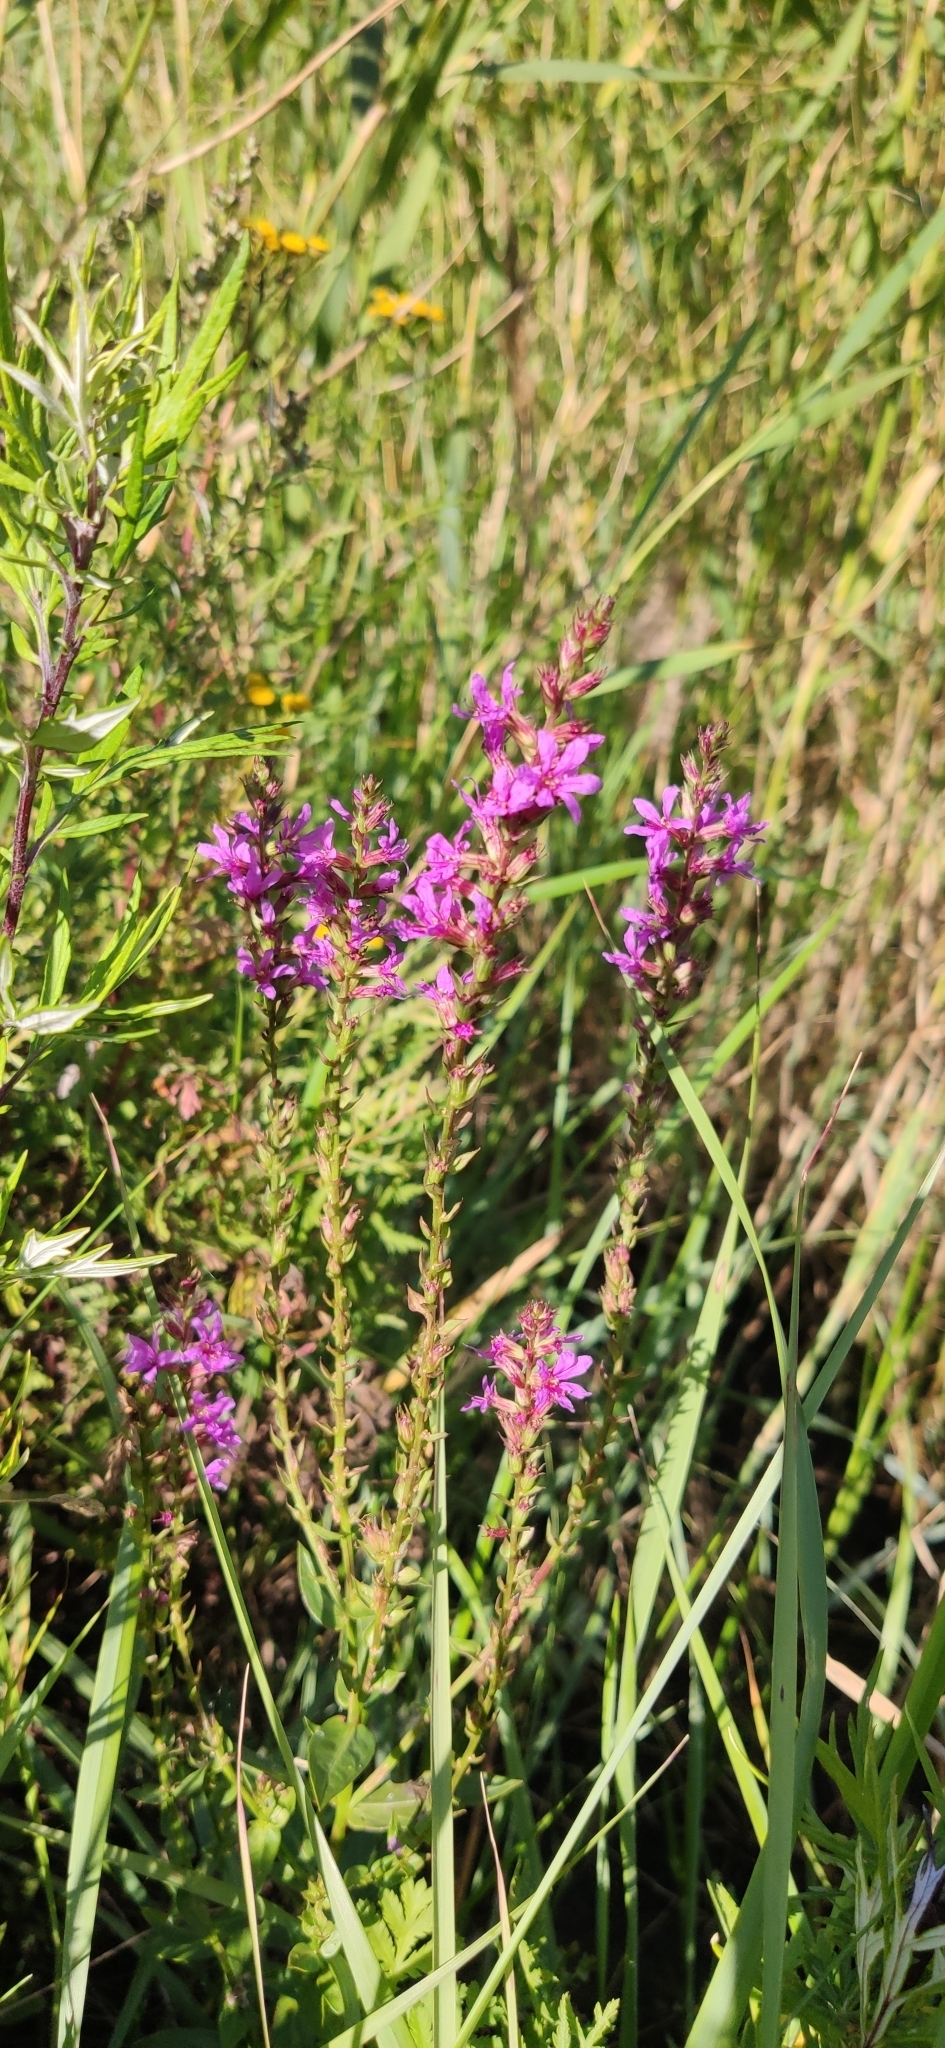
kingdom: Plantae
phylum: Tracheophyta
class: Magnoliopsida
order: Myrtales
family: Lythraceae
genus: Lythrum
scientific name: Lythrum salicaria
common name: Purple loosestrife
